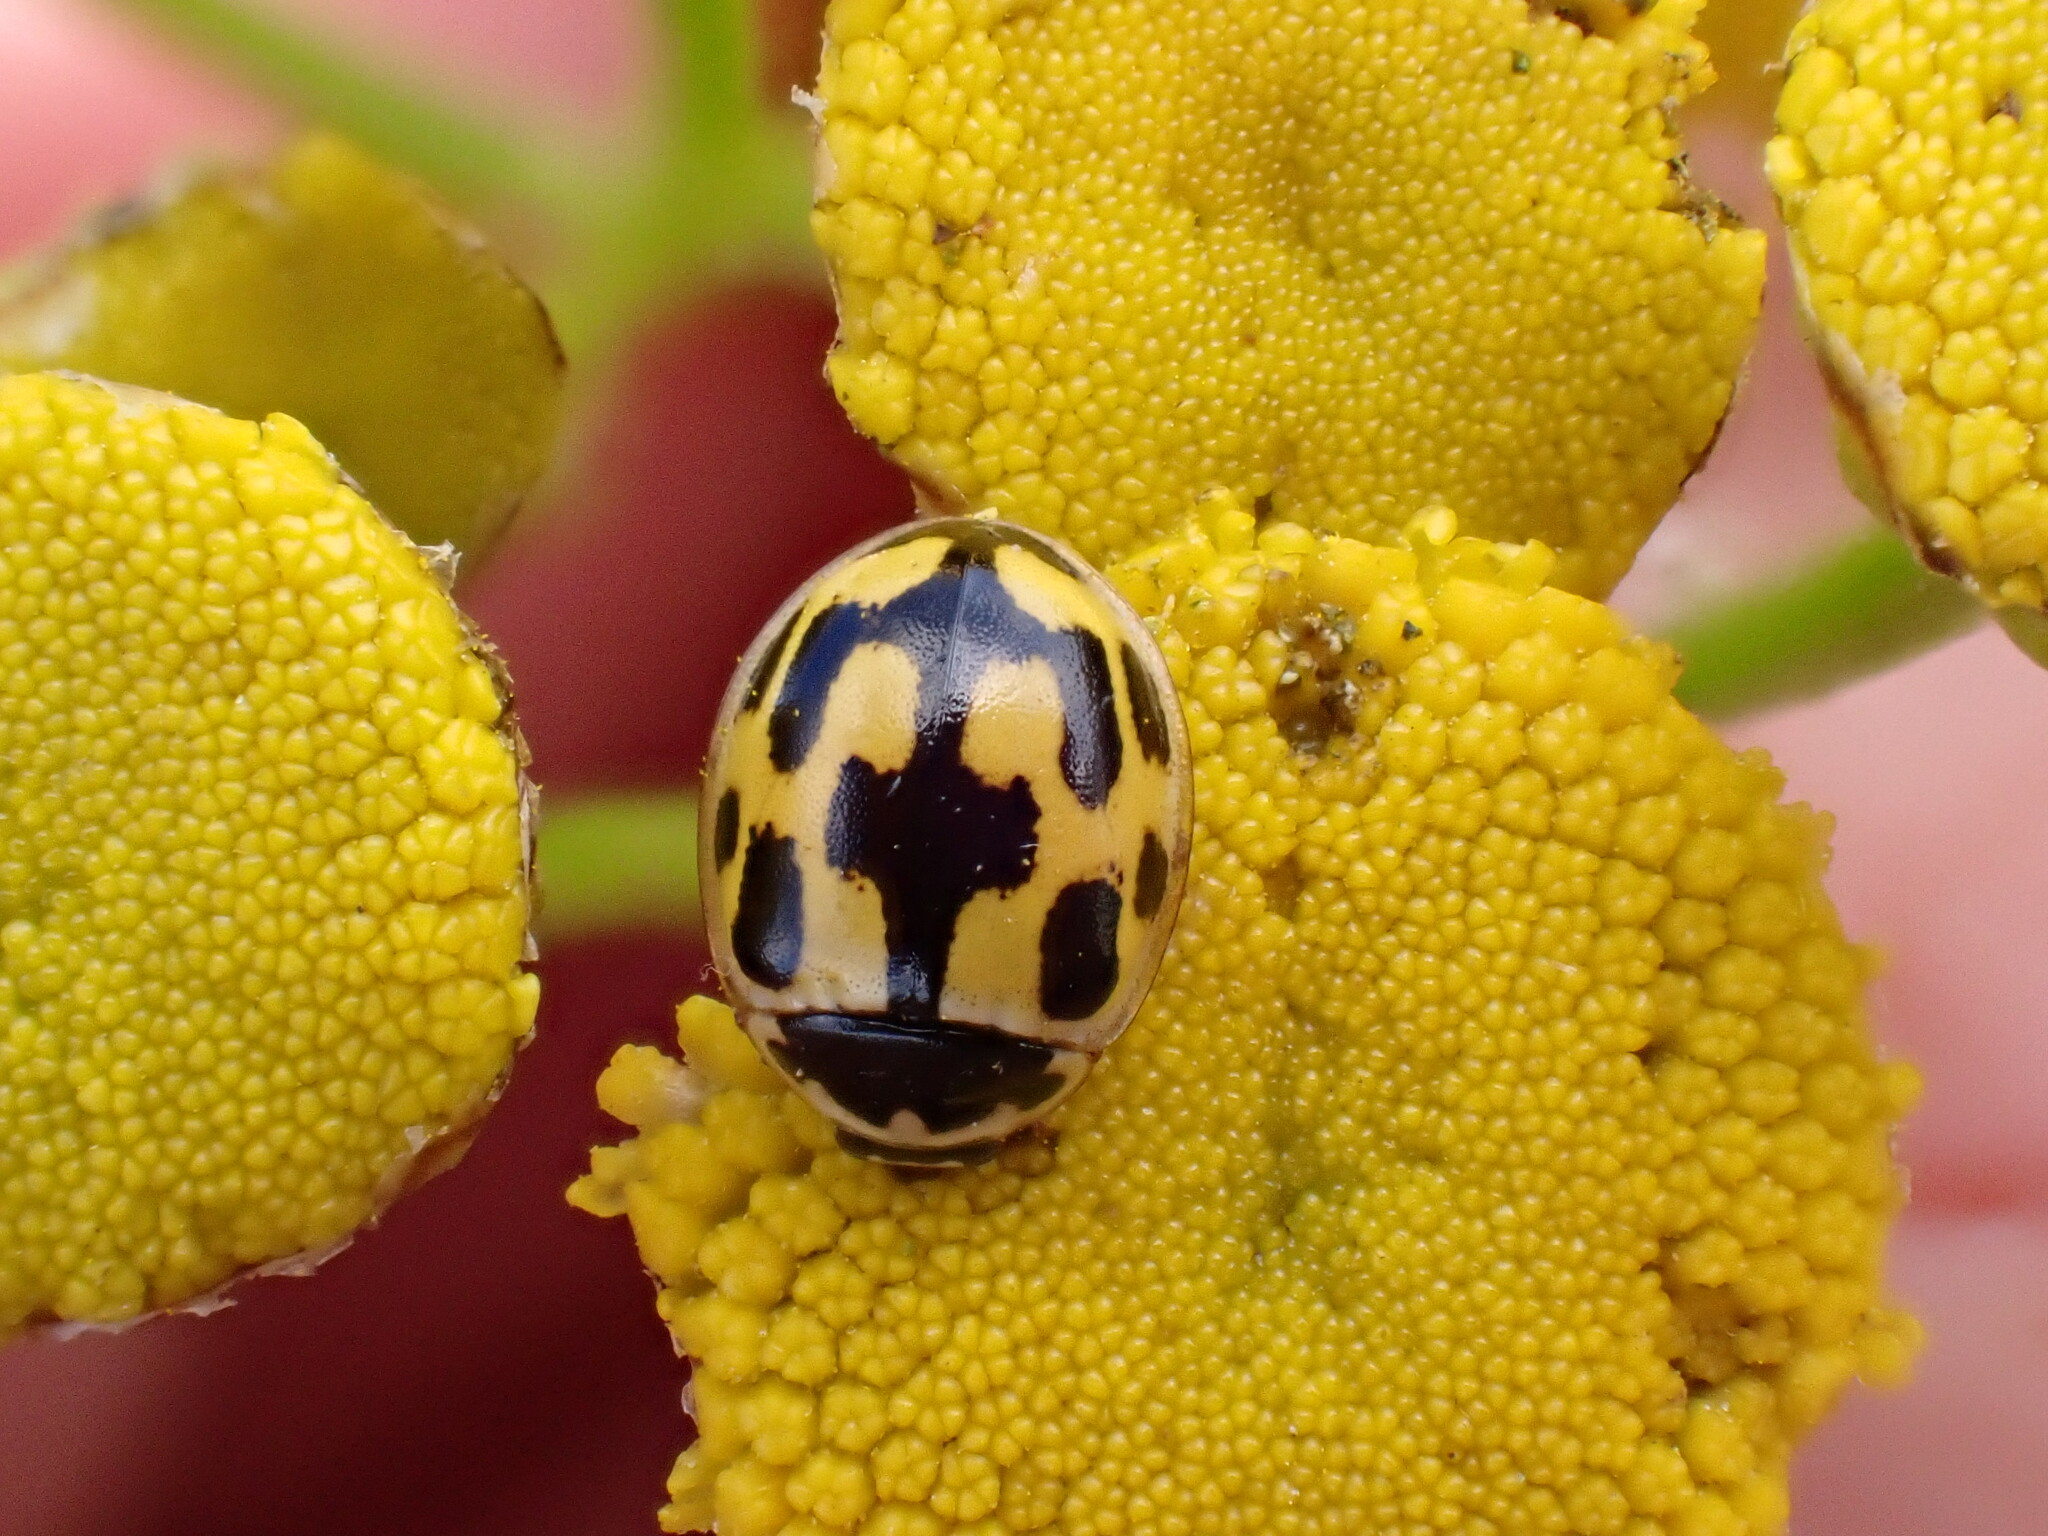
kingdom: Animalia
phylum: Arthropoda
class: Insecta
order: Coleoptera
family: Coccinellidae
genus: Propylaea
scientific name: Propylaea quatuordecimpunctata
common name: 14-spotted ladybird beetle
